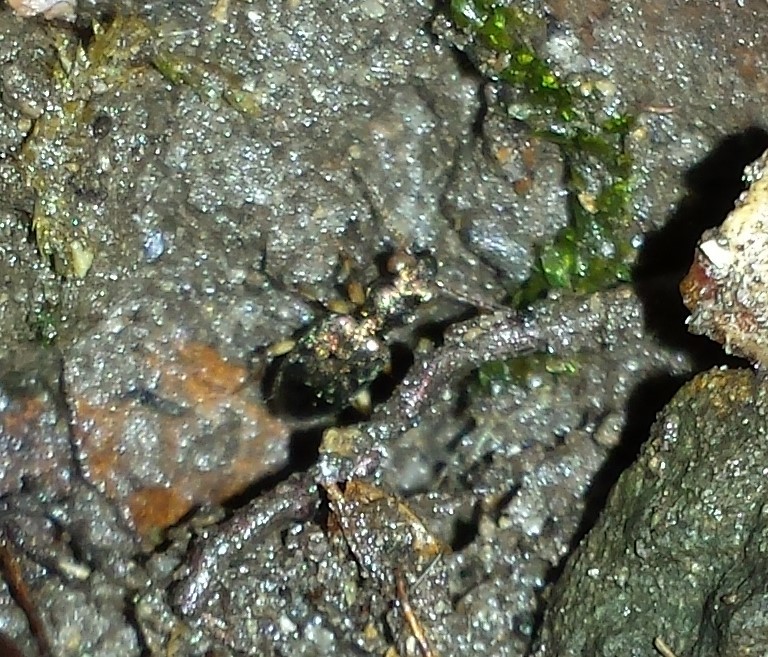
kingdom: Animalia
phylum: Arthropoda
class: Insecta
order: Coleoptera
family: Carabidae
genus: Asaphidion
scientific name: Asaphidion curtum
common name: Ground beetle
